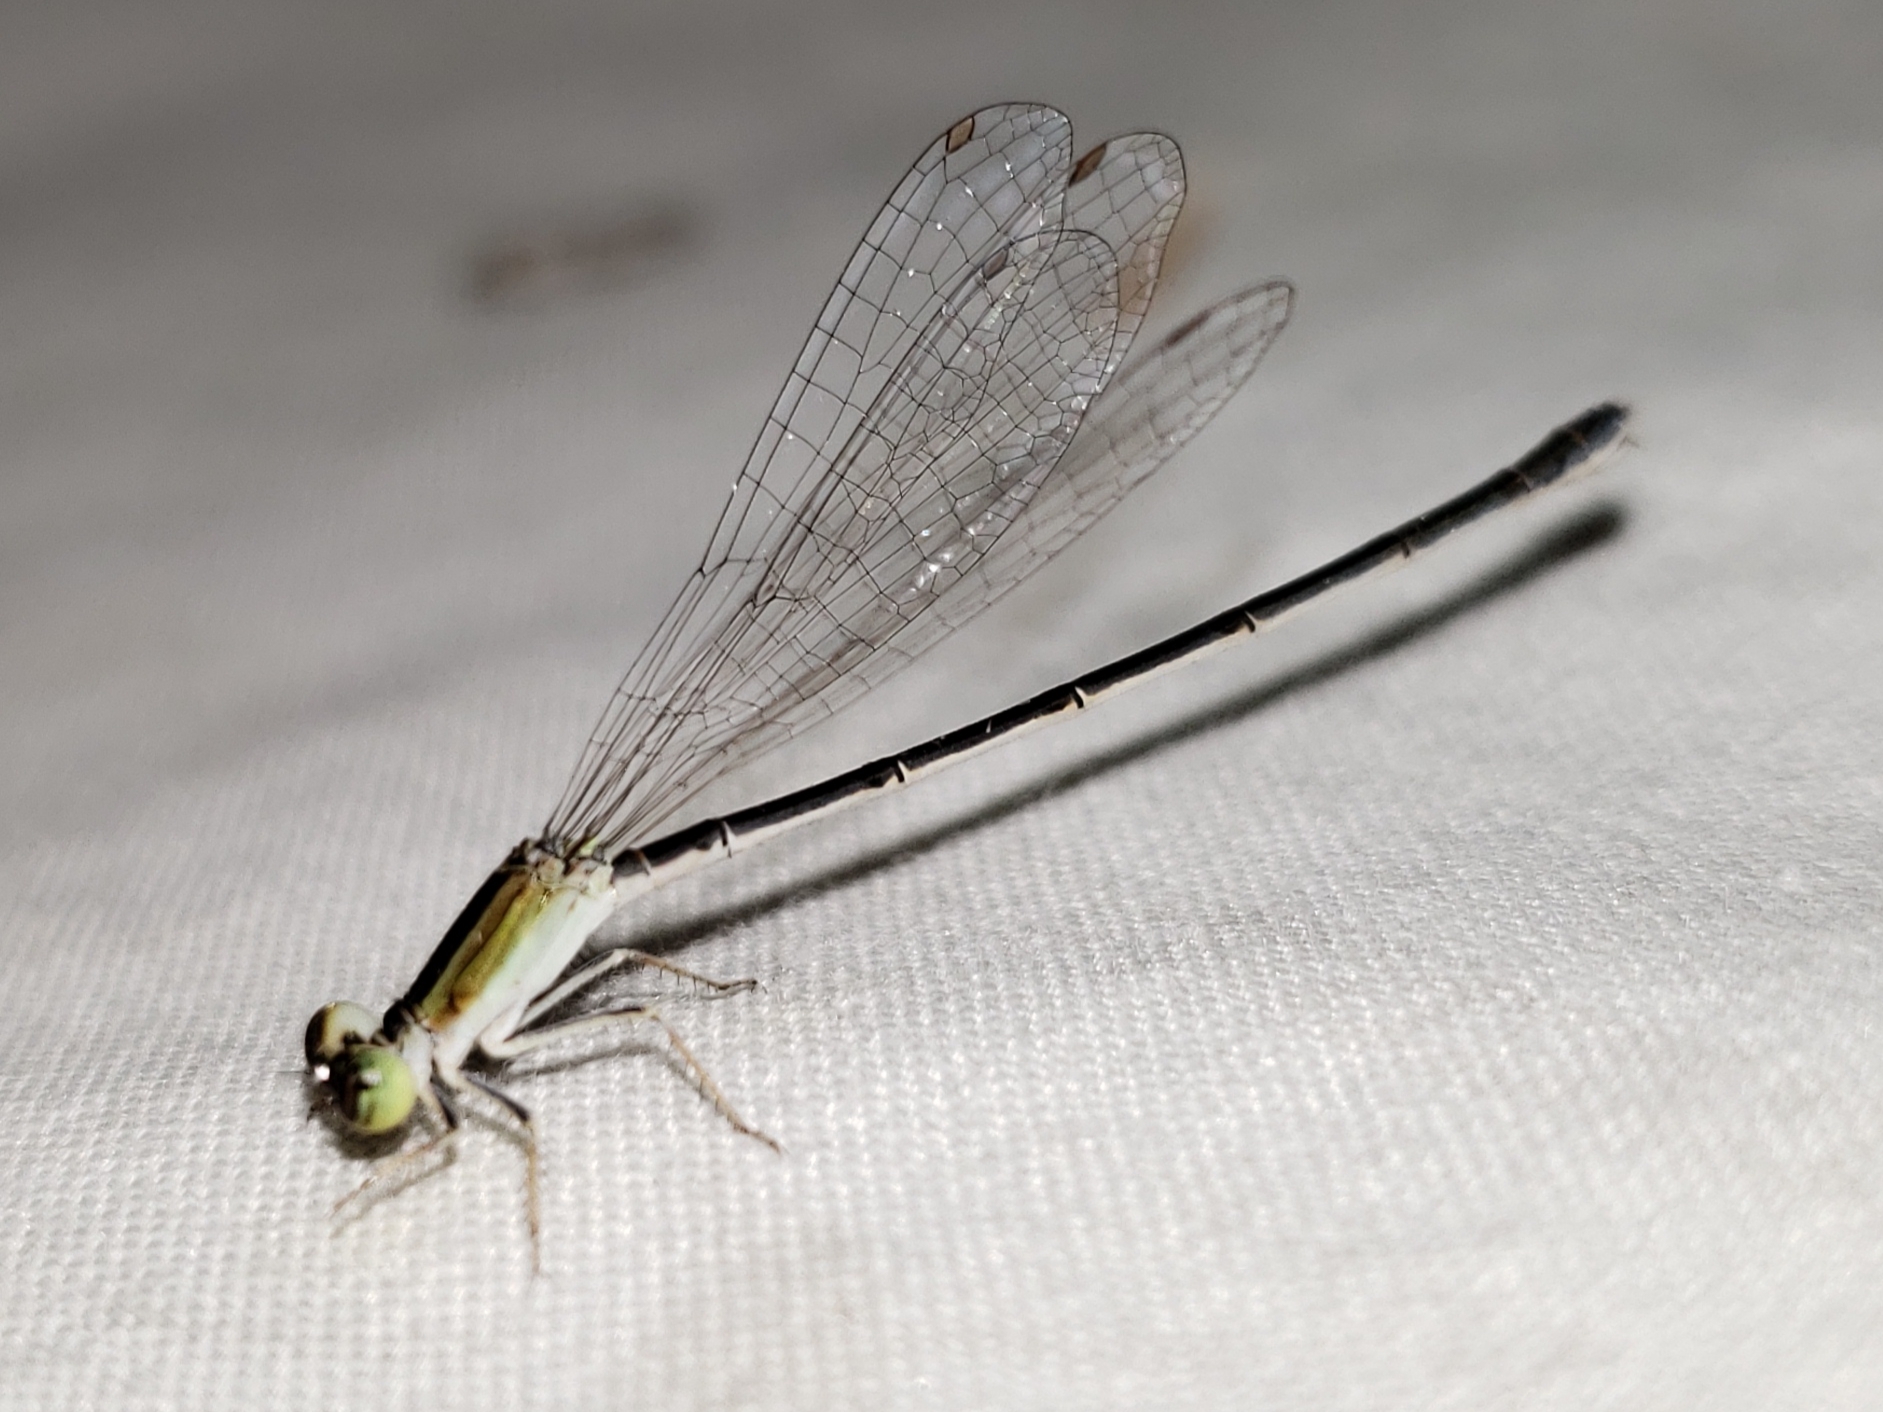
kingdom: Animalia
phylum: Arthropoda
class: Insecta
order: Odonata
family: Coenagrionidae
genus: Ischnura
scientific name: Ischnura hastata
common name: Citrine forktail
